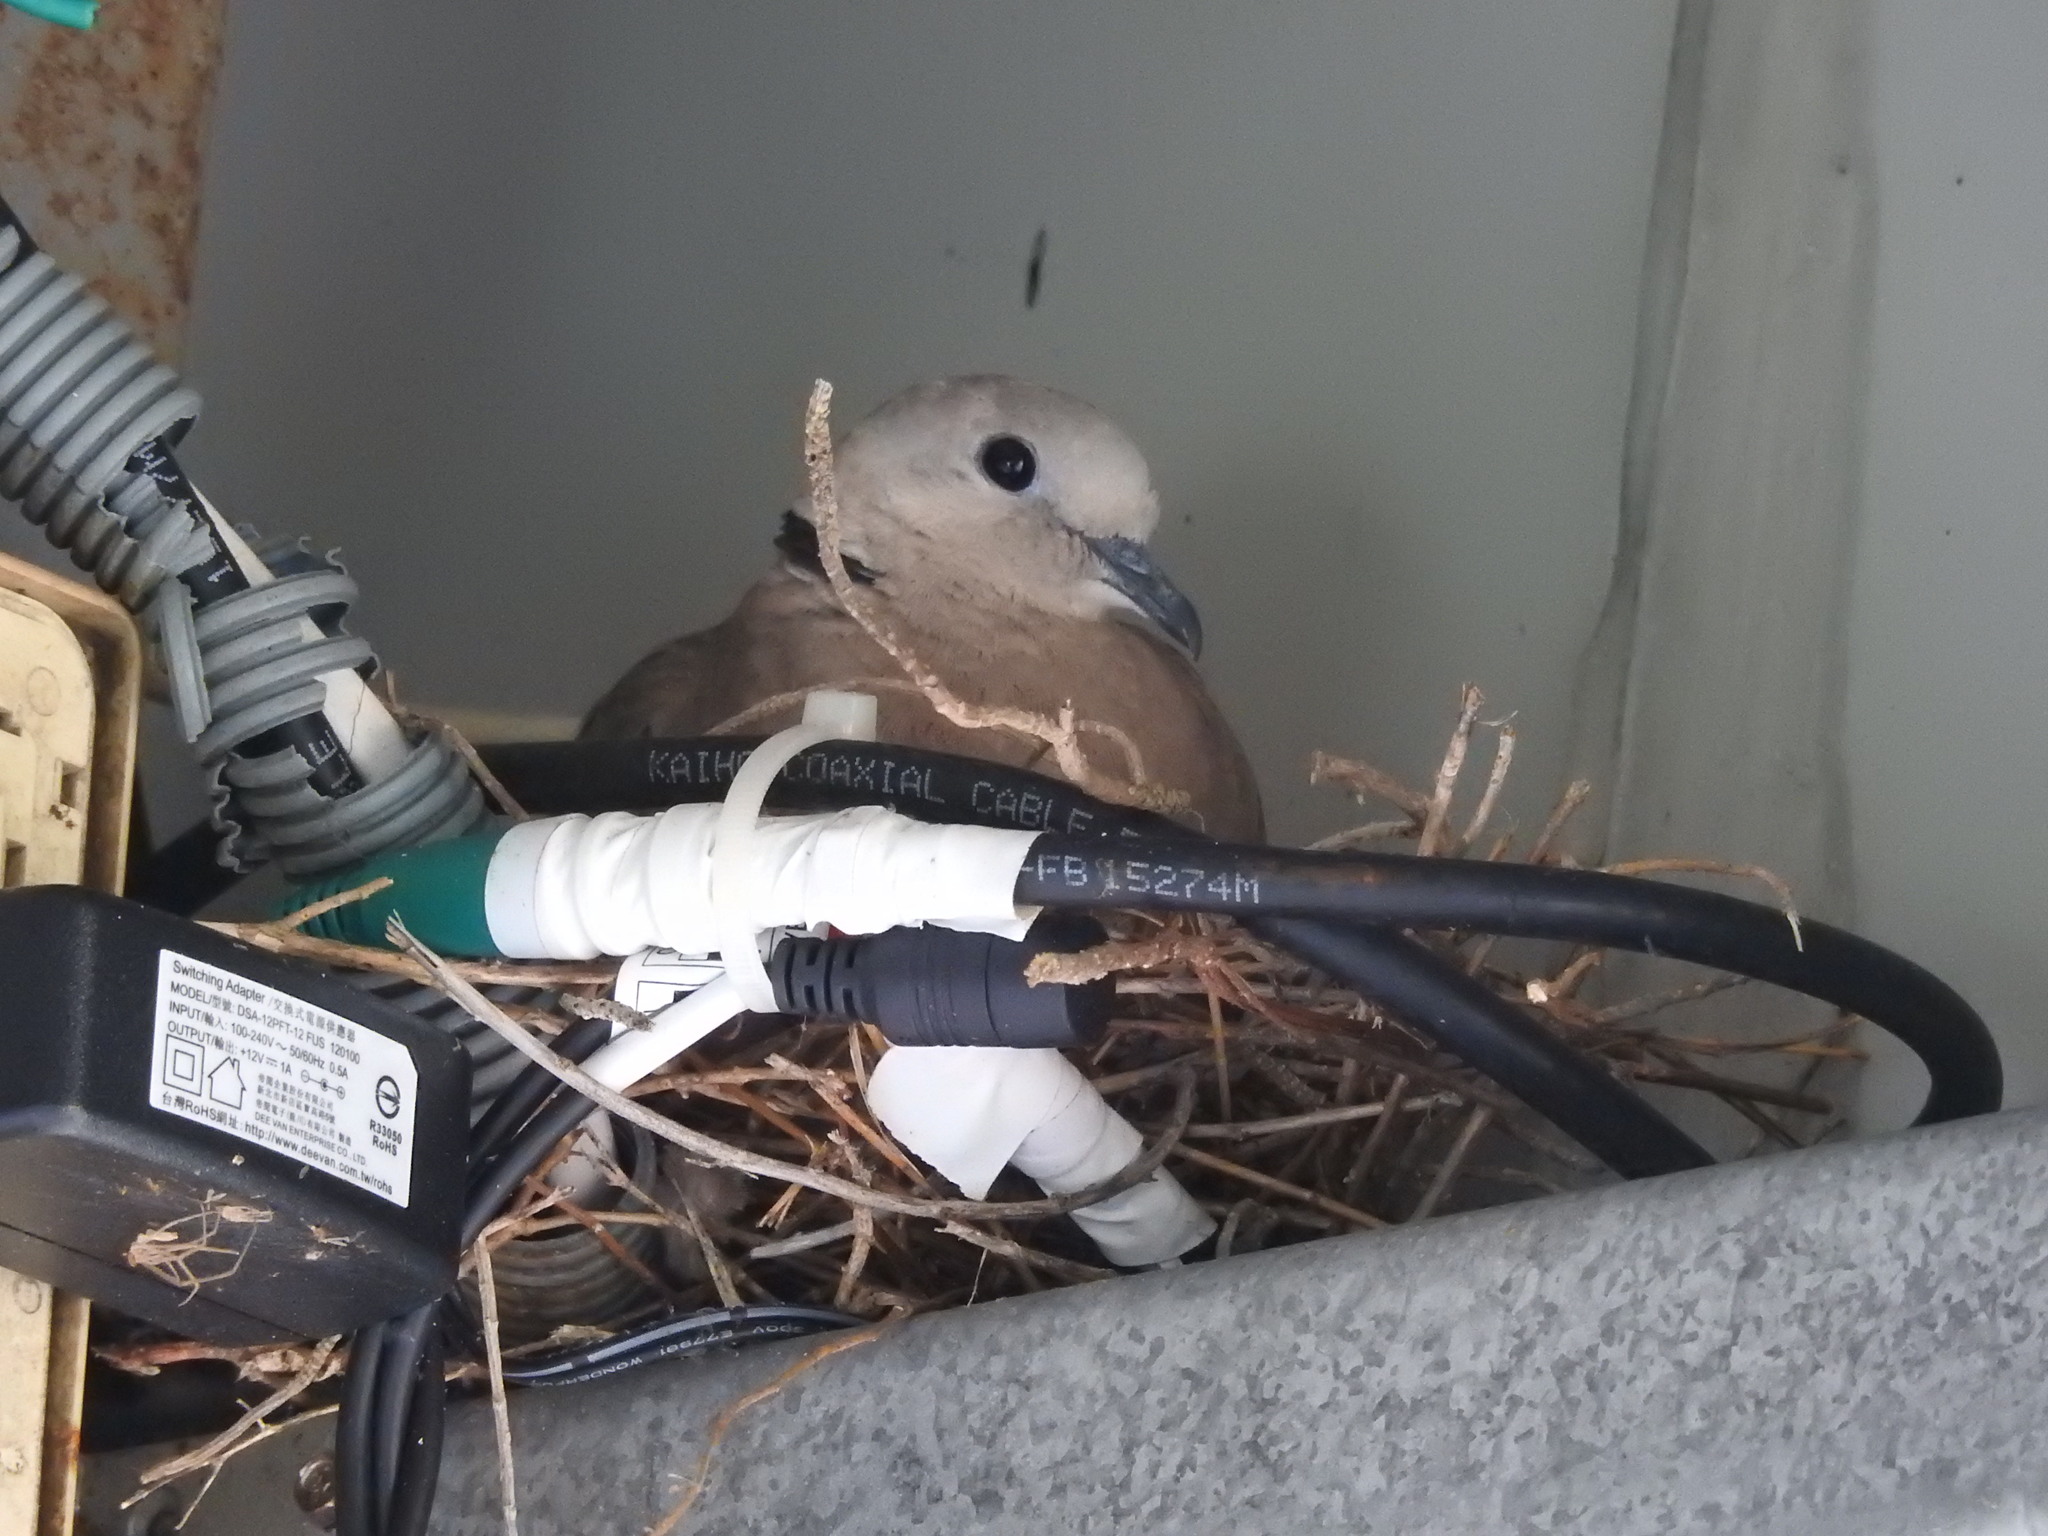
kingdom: Animalia
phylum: Chordata
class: Aves
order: Columbiformes
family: Columbidae
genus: Streptopelia
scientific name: Streptopelia tranquebarica
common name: Red turtle dove
